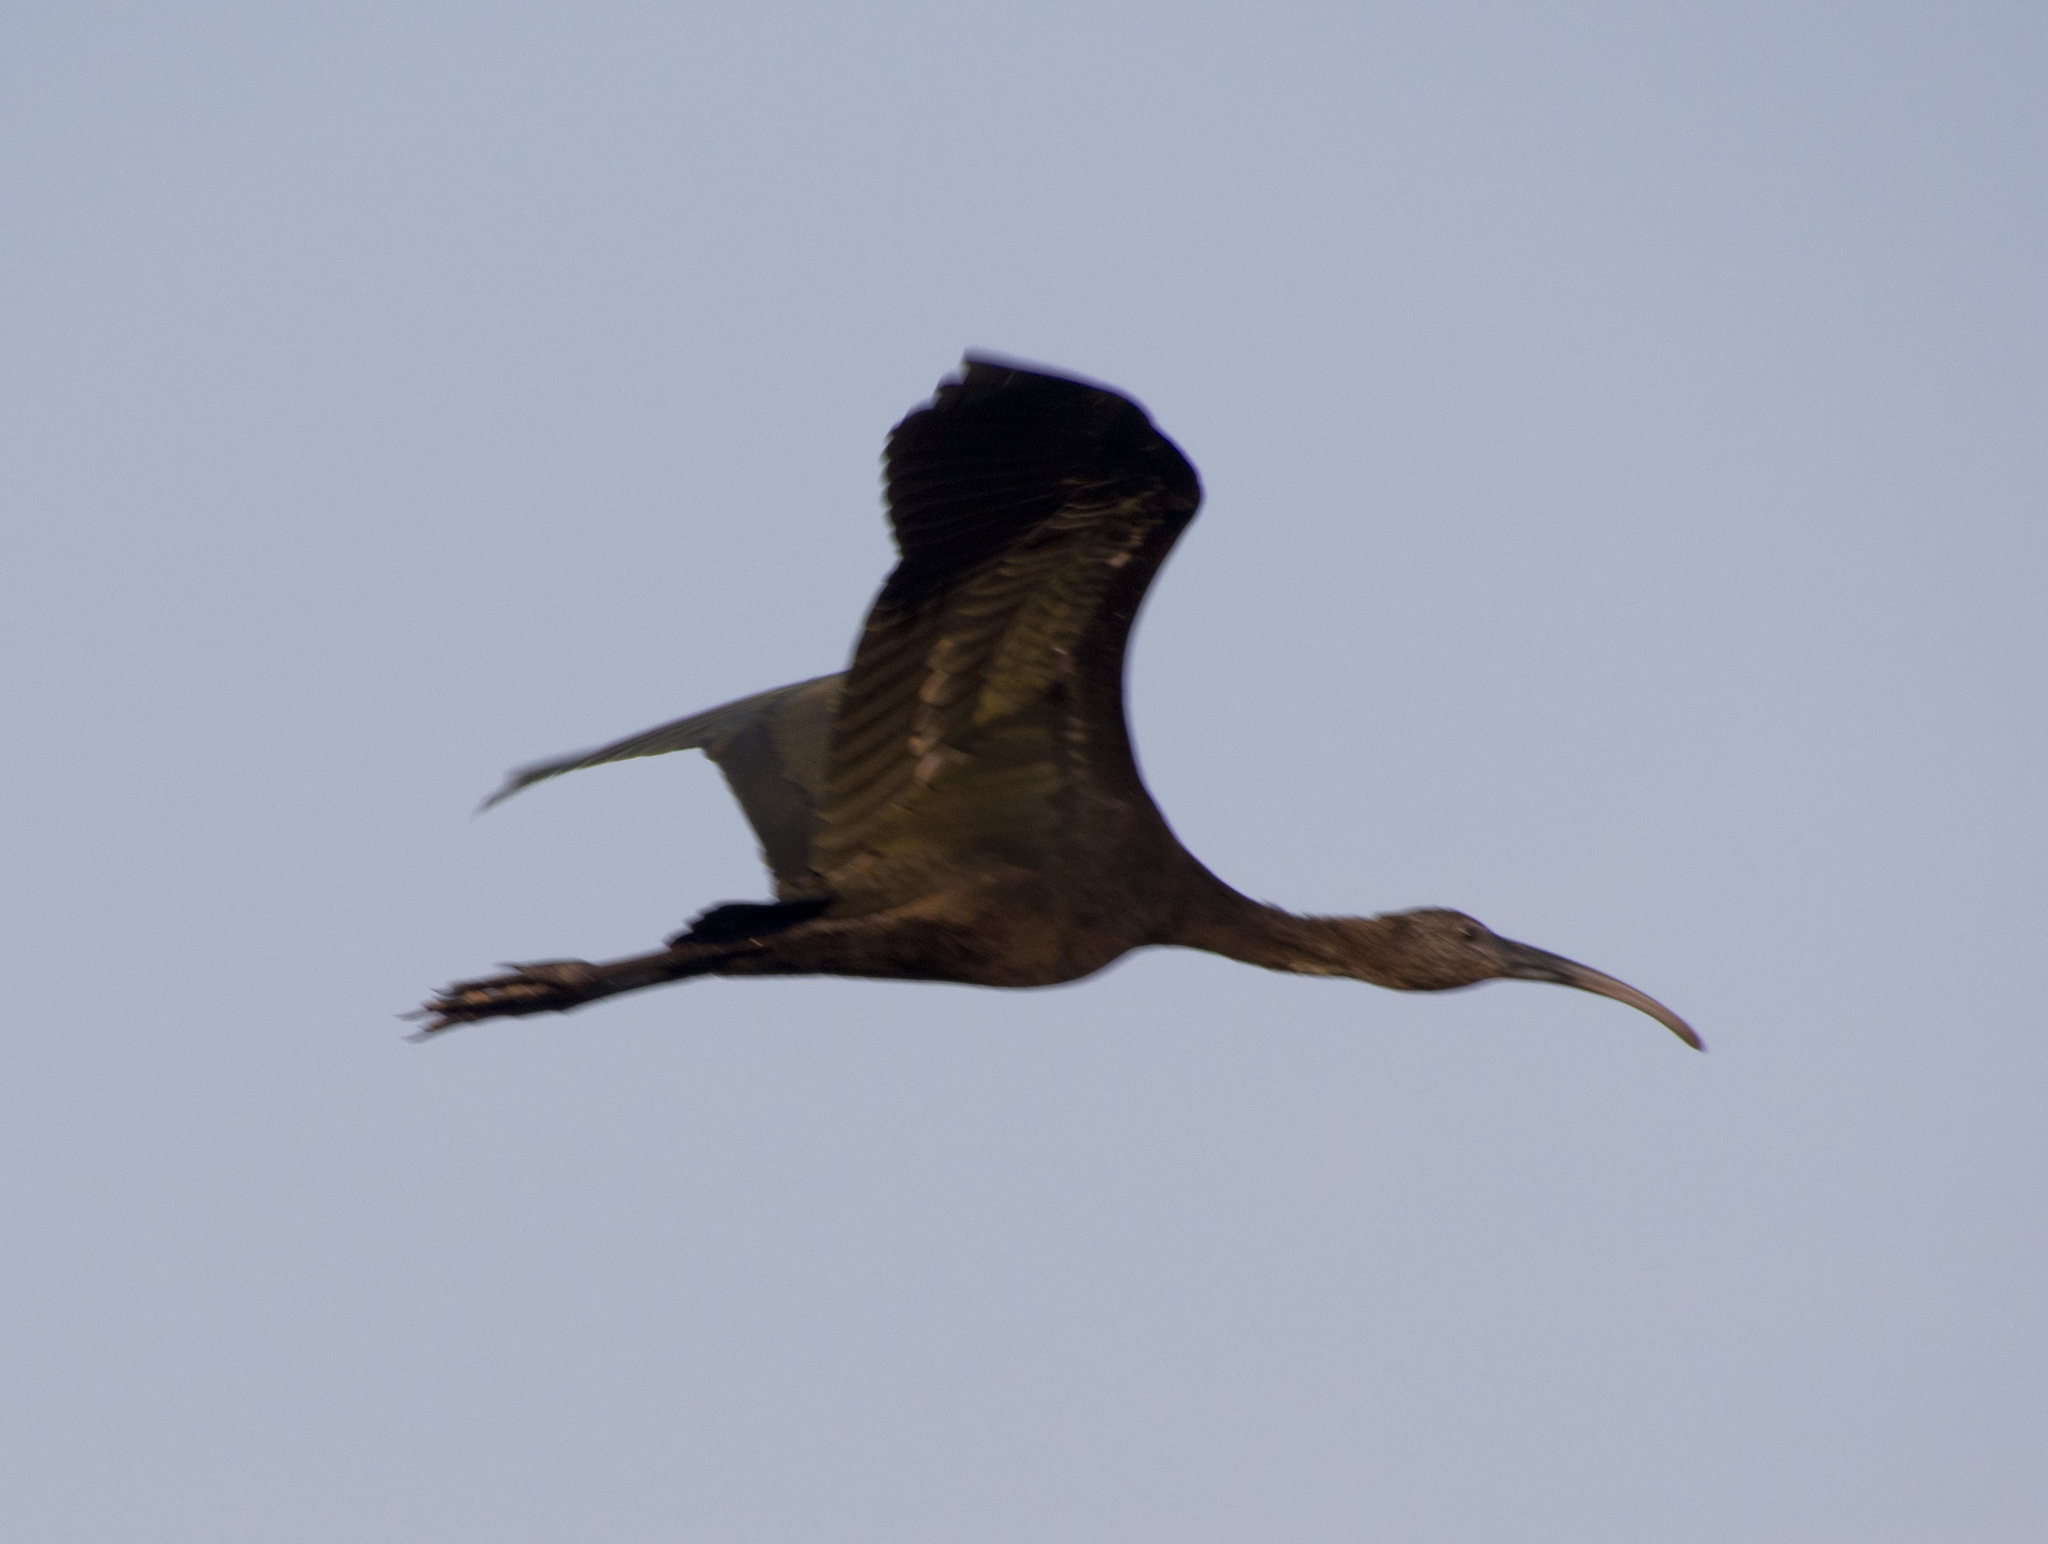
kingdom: Animalia
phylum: Chordata
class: Aves
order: Pelecaniformes
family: Threskiornithidae
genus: Plegadis
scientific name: Plegadis chihi
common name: White-faced ibis
